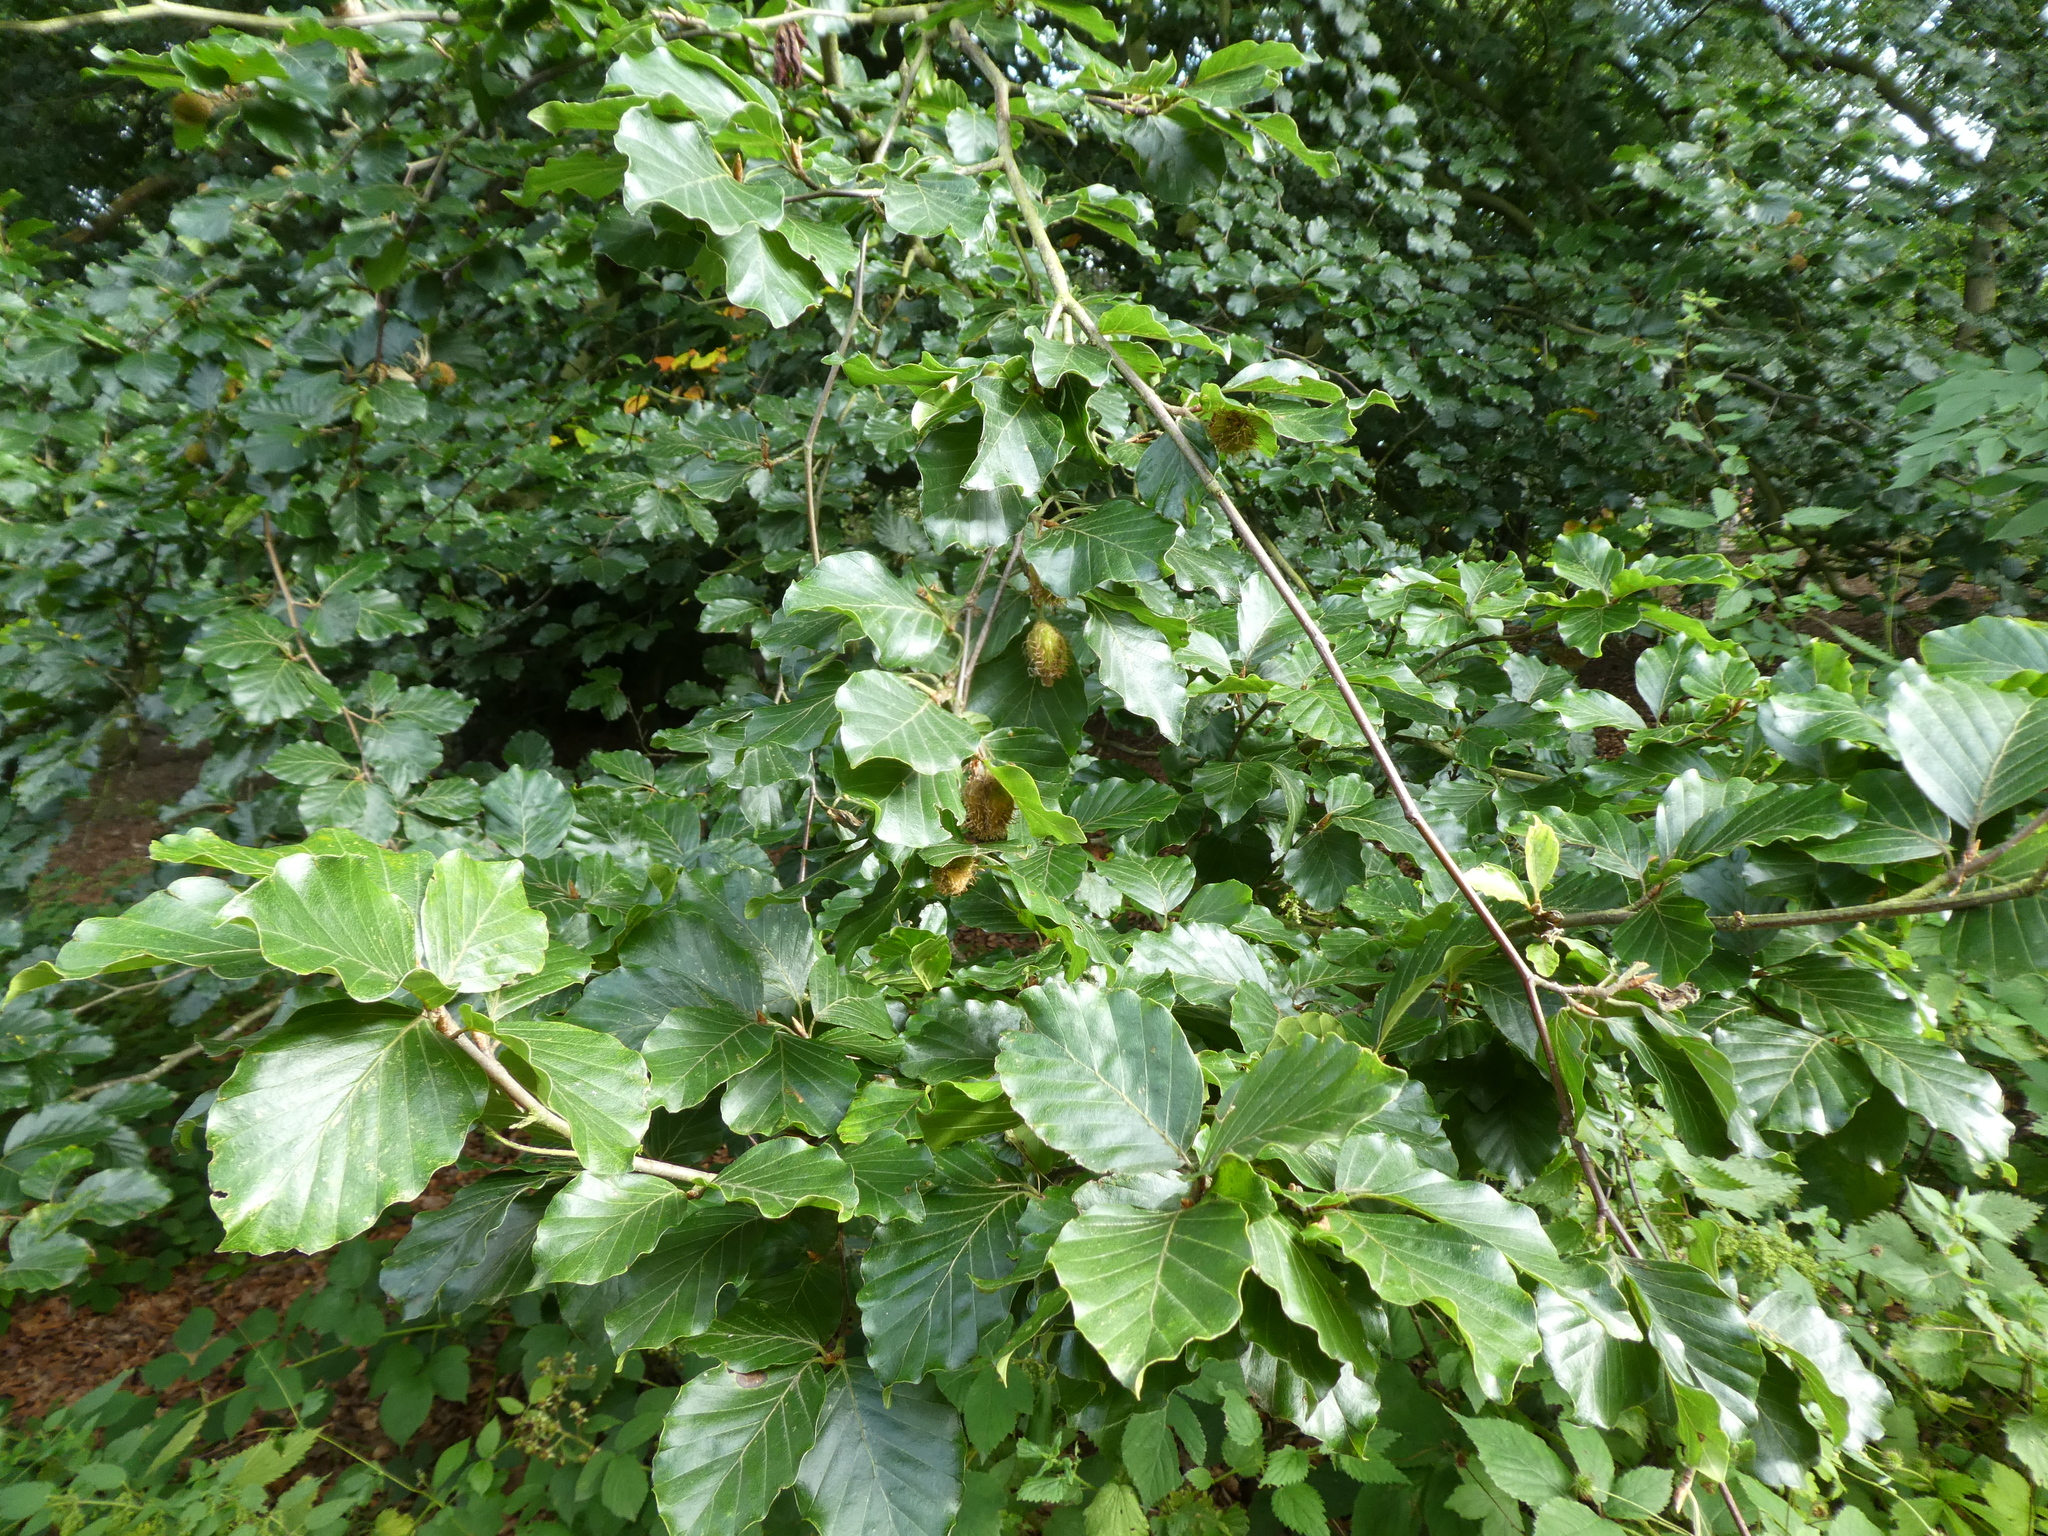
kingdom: Plantae
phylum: Tracheophyta
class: Magnoliopsida
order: Fagales
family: Fagaceae
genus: Fagus
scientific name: Fagus sylvatica
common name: Beech
